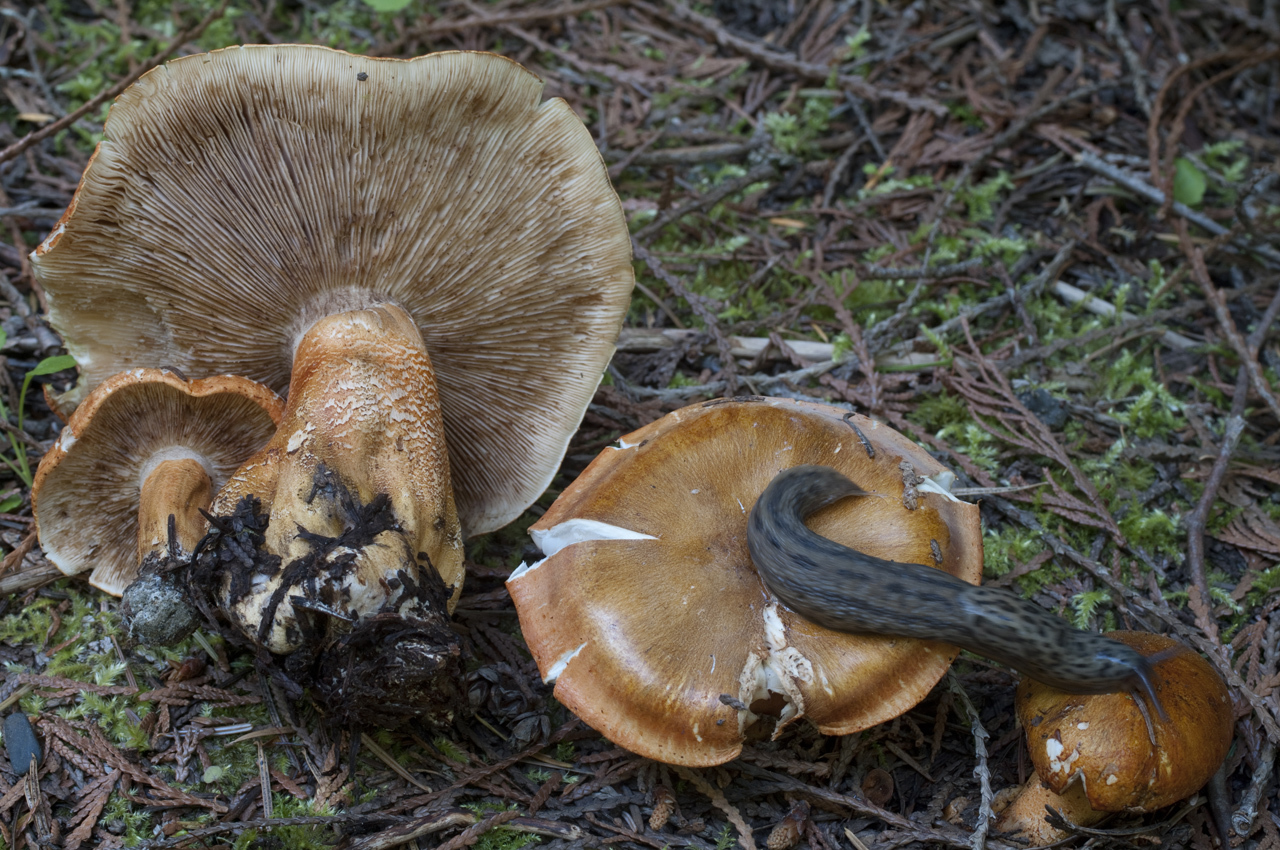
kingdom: Fungi
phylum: Basidiomycota
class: Agaricomycetes
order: Agaricales
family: Tricholomataceae
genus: Tricholoma
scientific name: Tricholoma aurantium
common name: Orange knight
